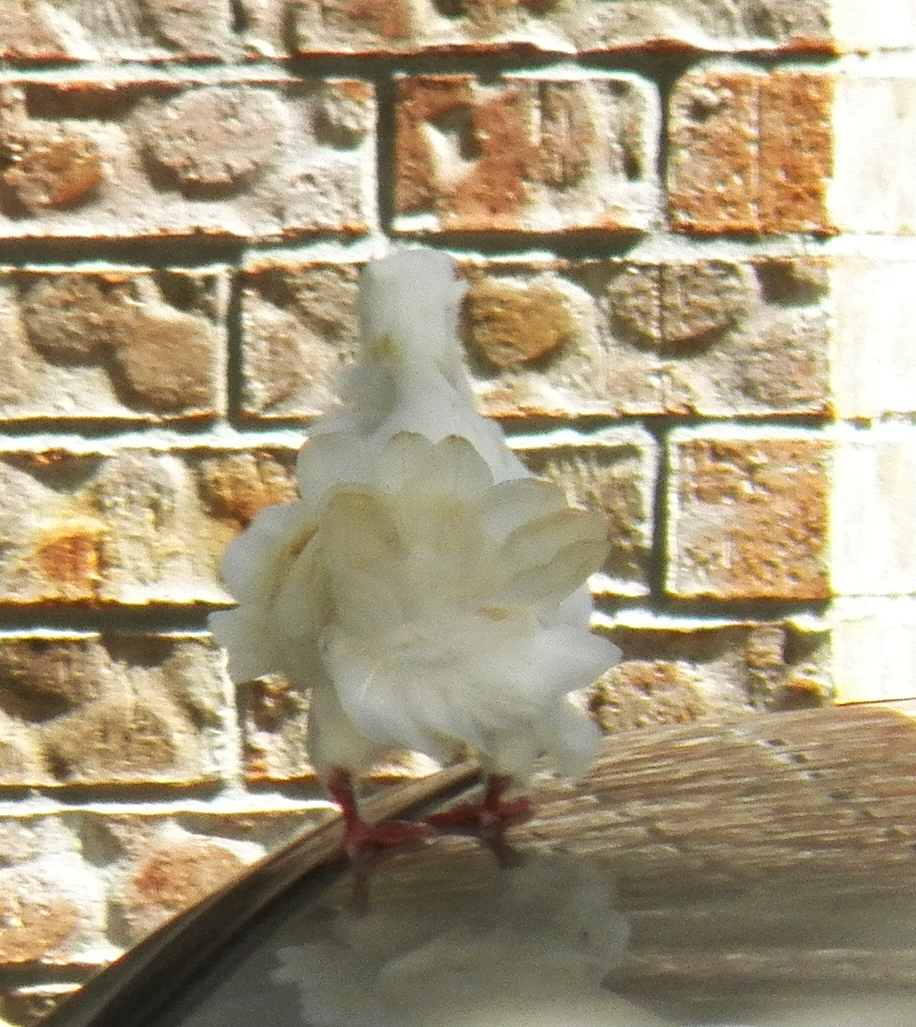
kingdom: Animalia
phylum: Chordata
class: Aves
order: Columbiformes
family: Columbidae
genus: Columba
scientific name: Columba livia
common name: Rock pigeon
